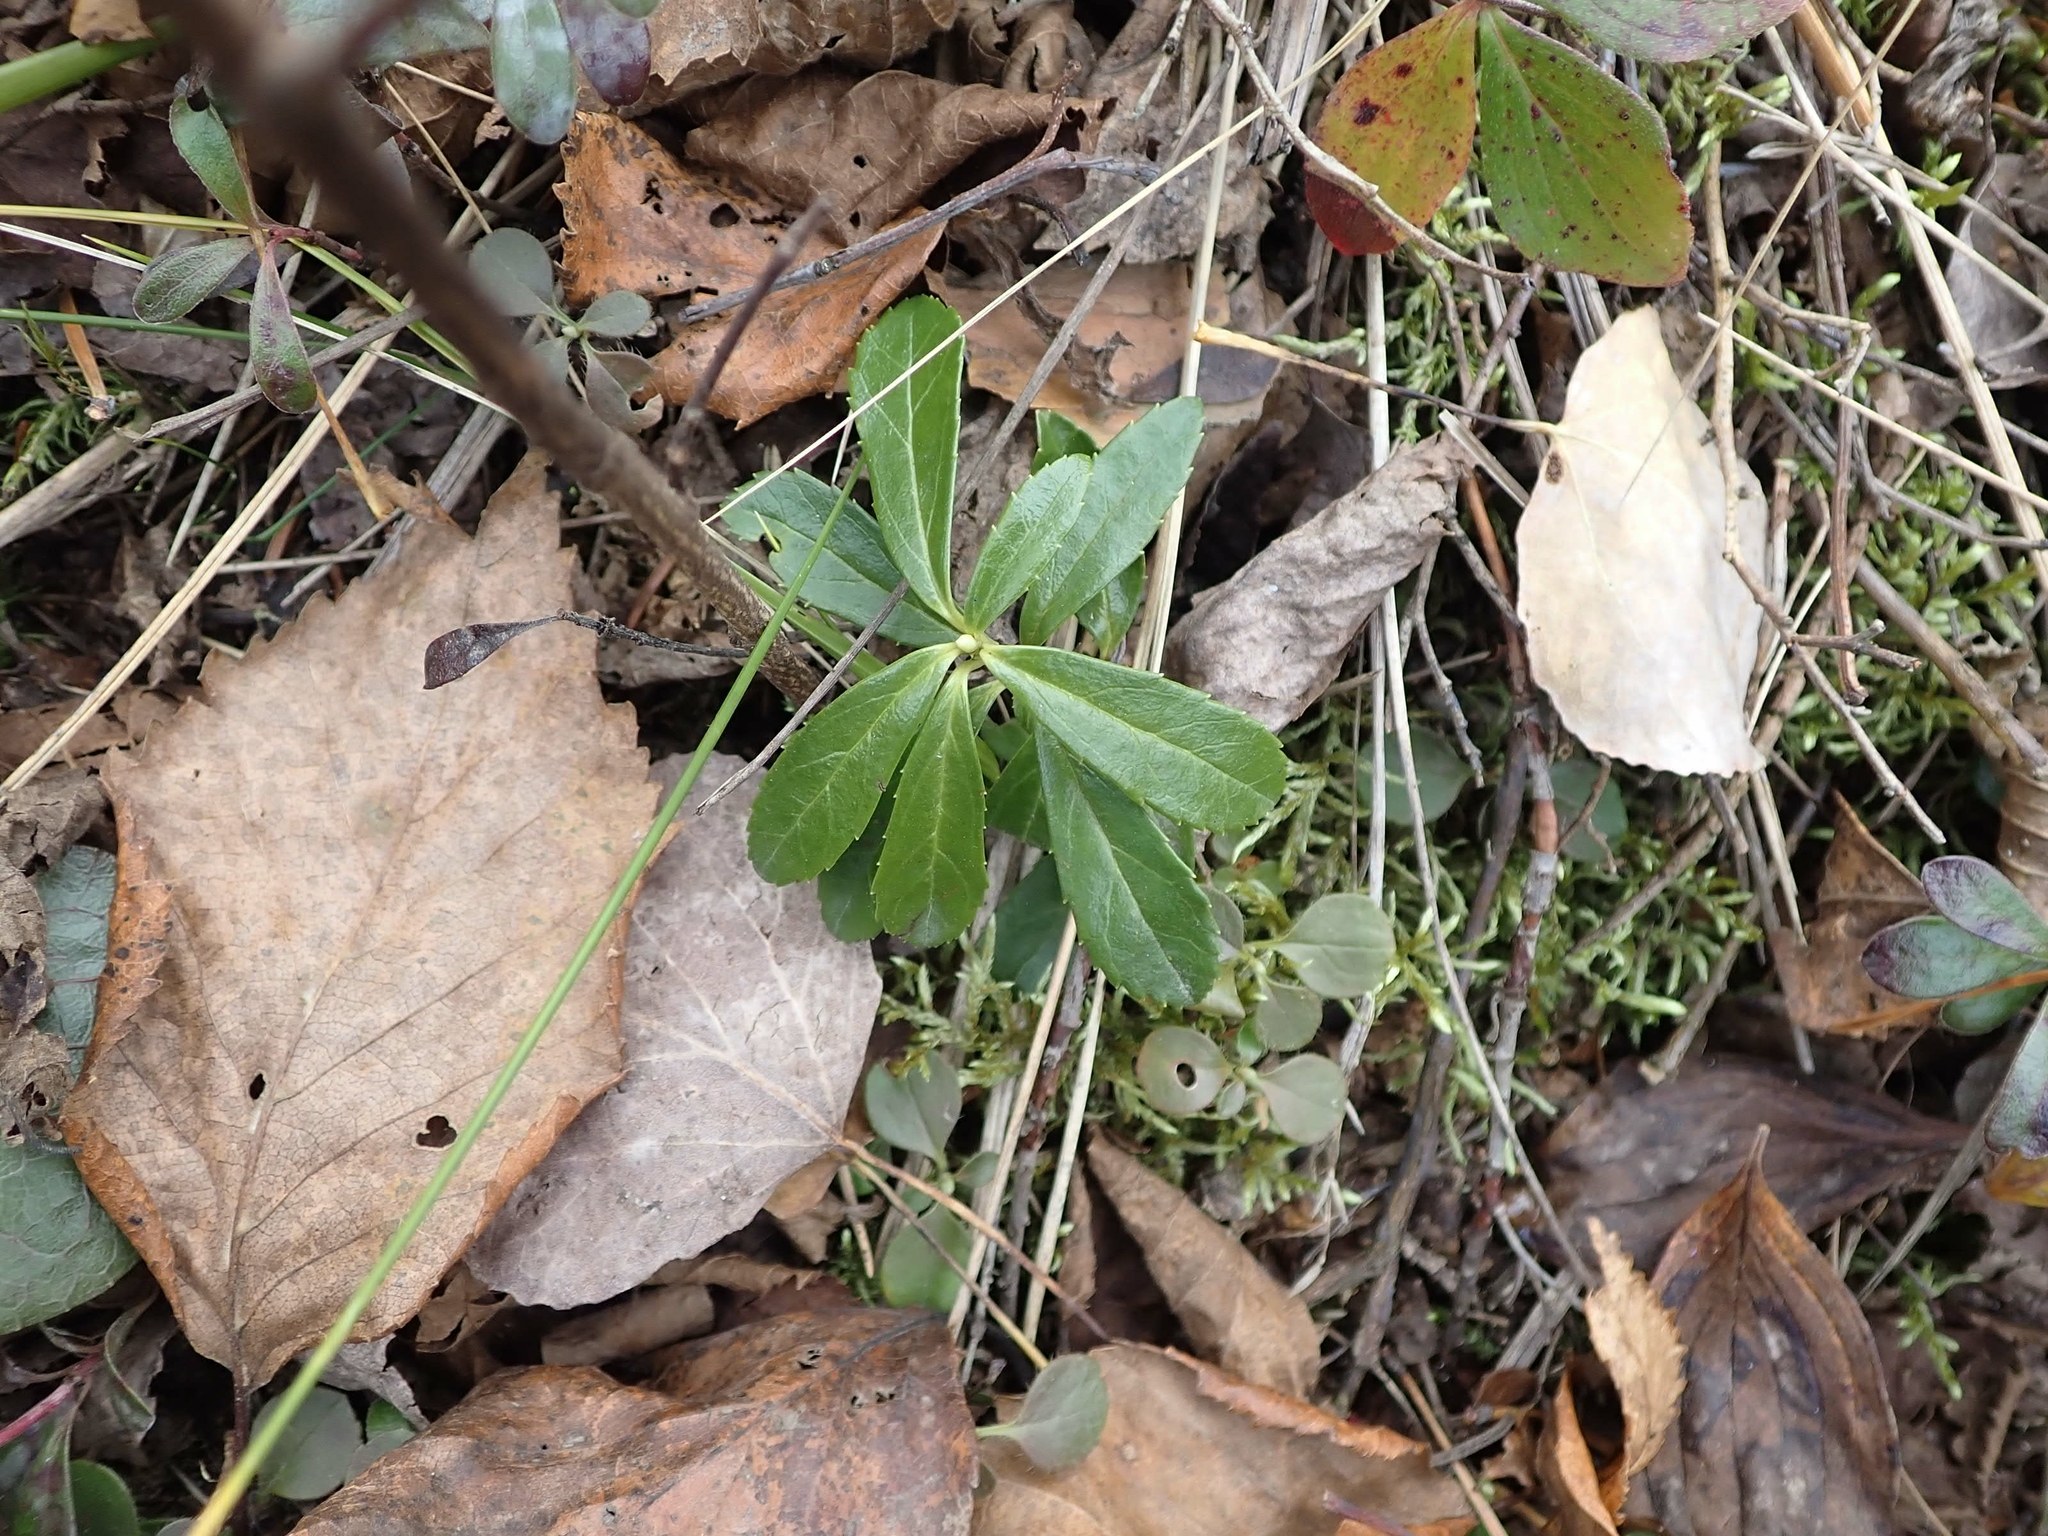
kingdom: Plantae
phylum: Tracheophyta
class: Magnoliopsida
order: Ericales
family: Ericaceae
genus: Chimaphila
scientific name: Chimaphila umbellata
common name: Pipsissewa
